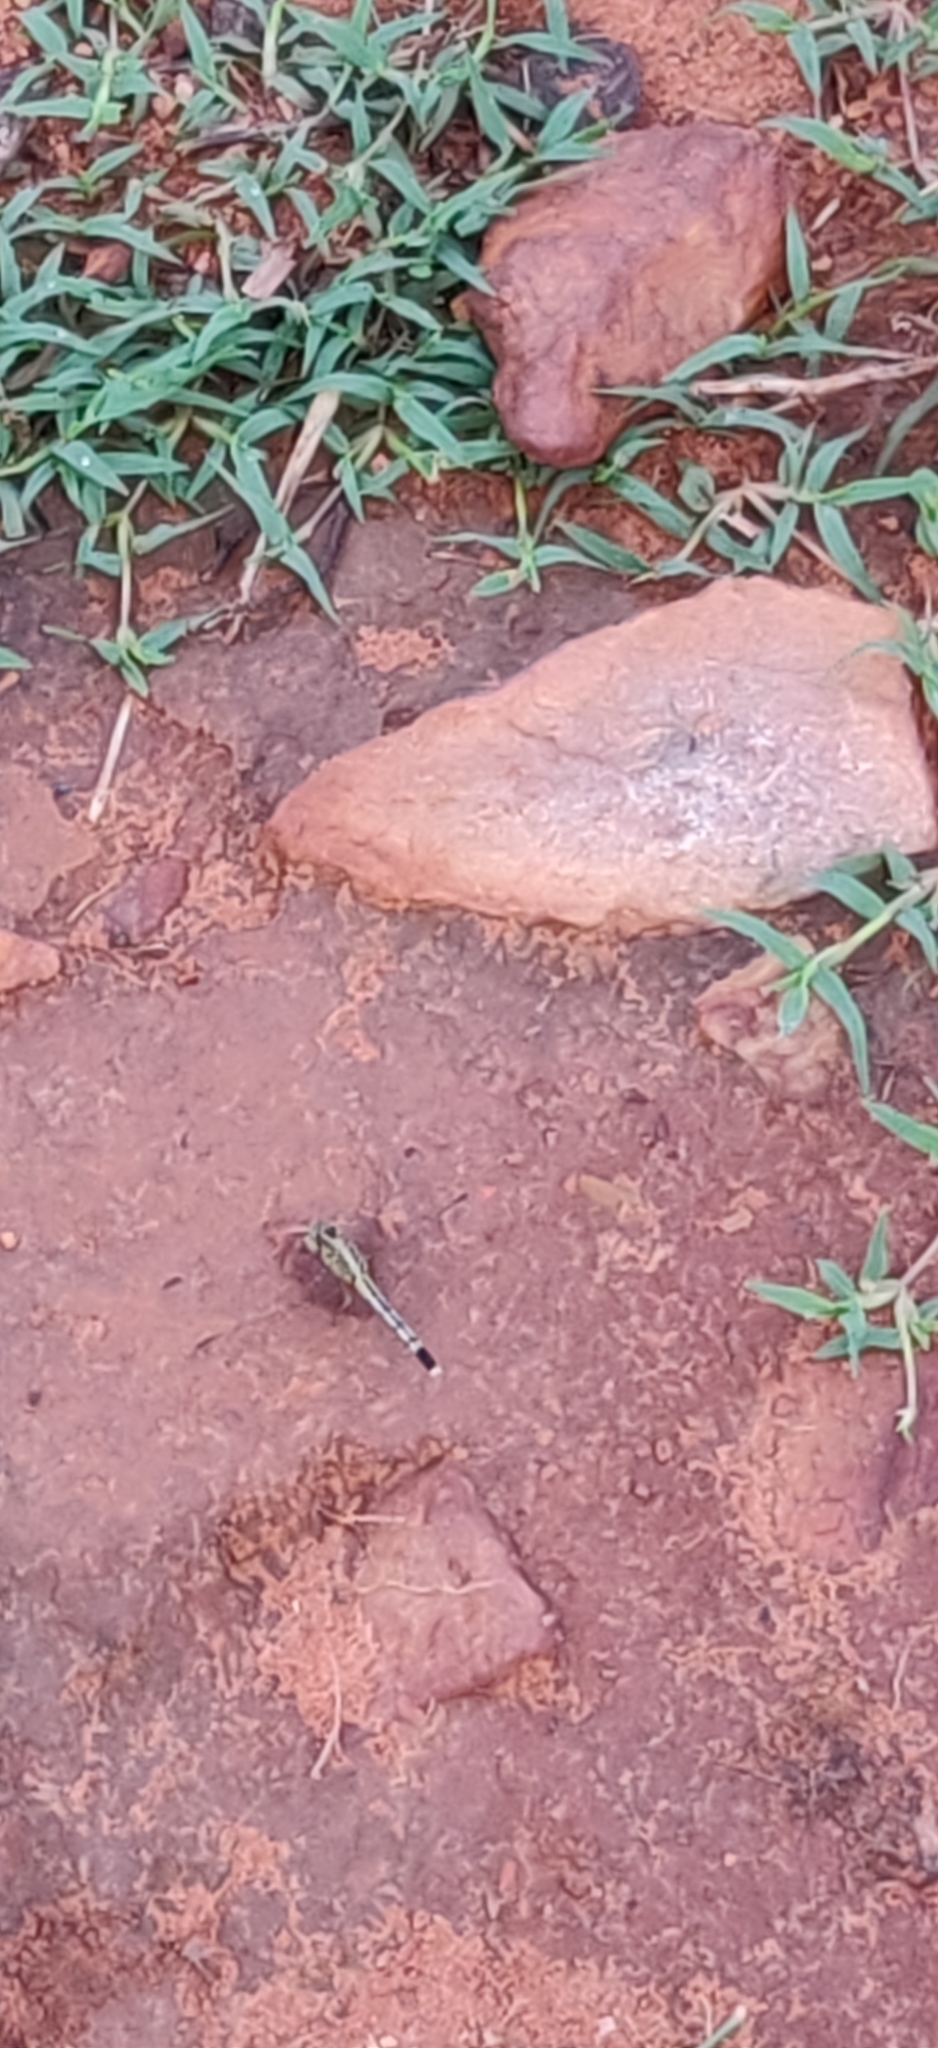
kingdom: Animalia
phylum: Arthropoda
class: Insecta
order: Odonata
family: Libellulidae
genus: Diplacodes
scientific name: Diplacodes trivialis
